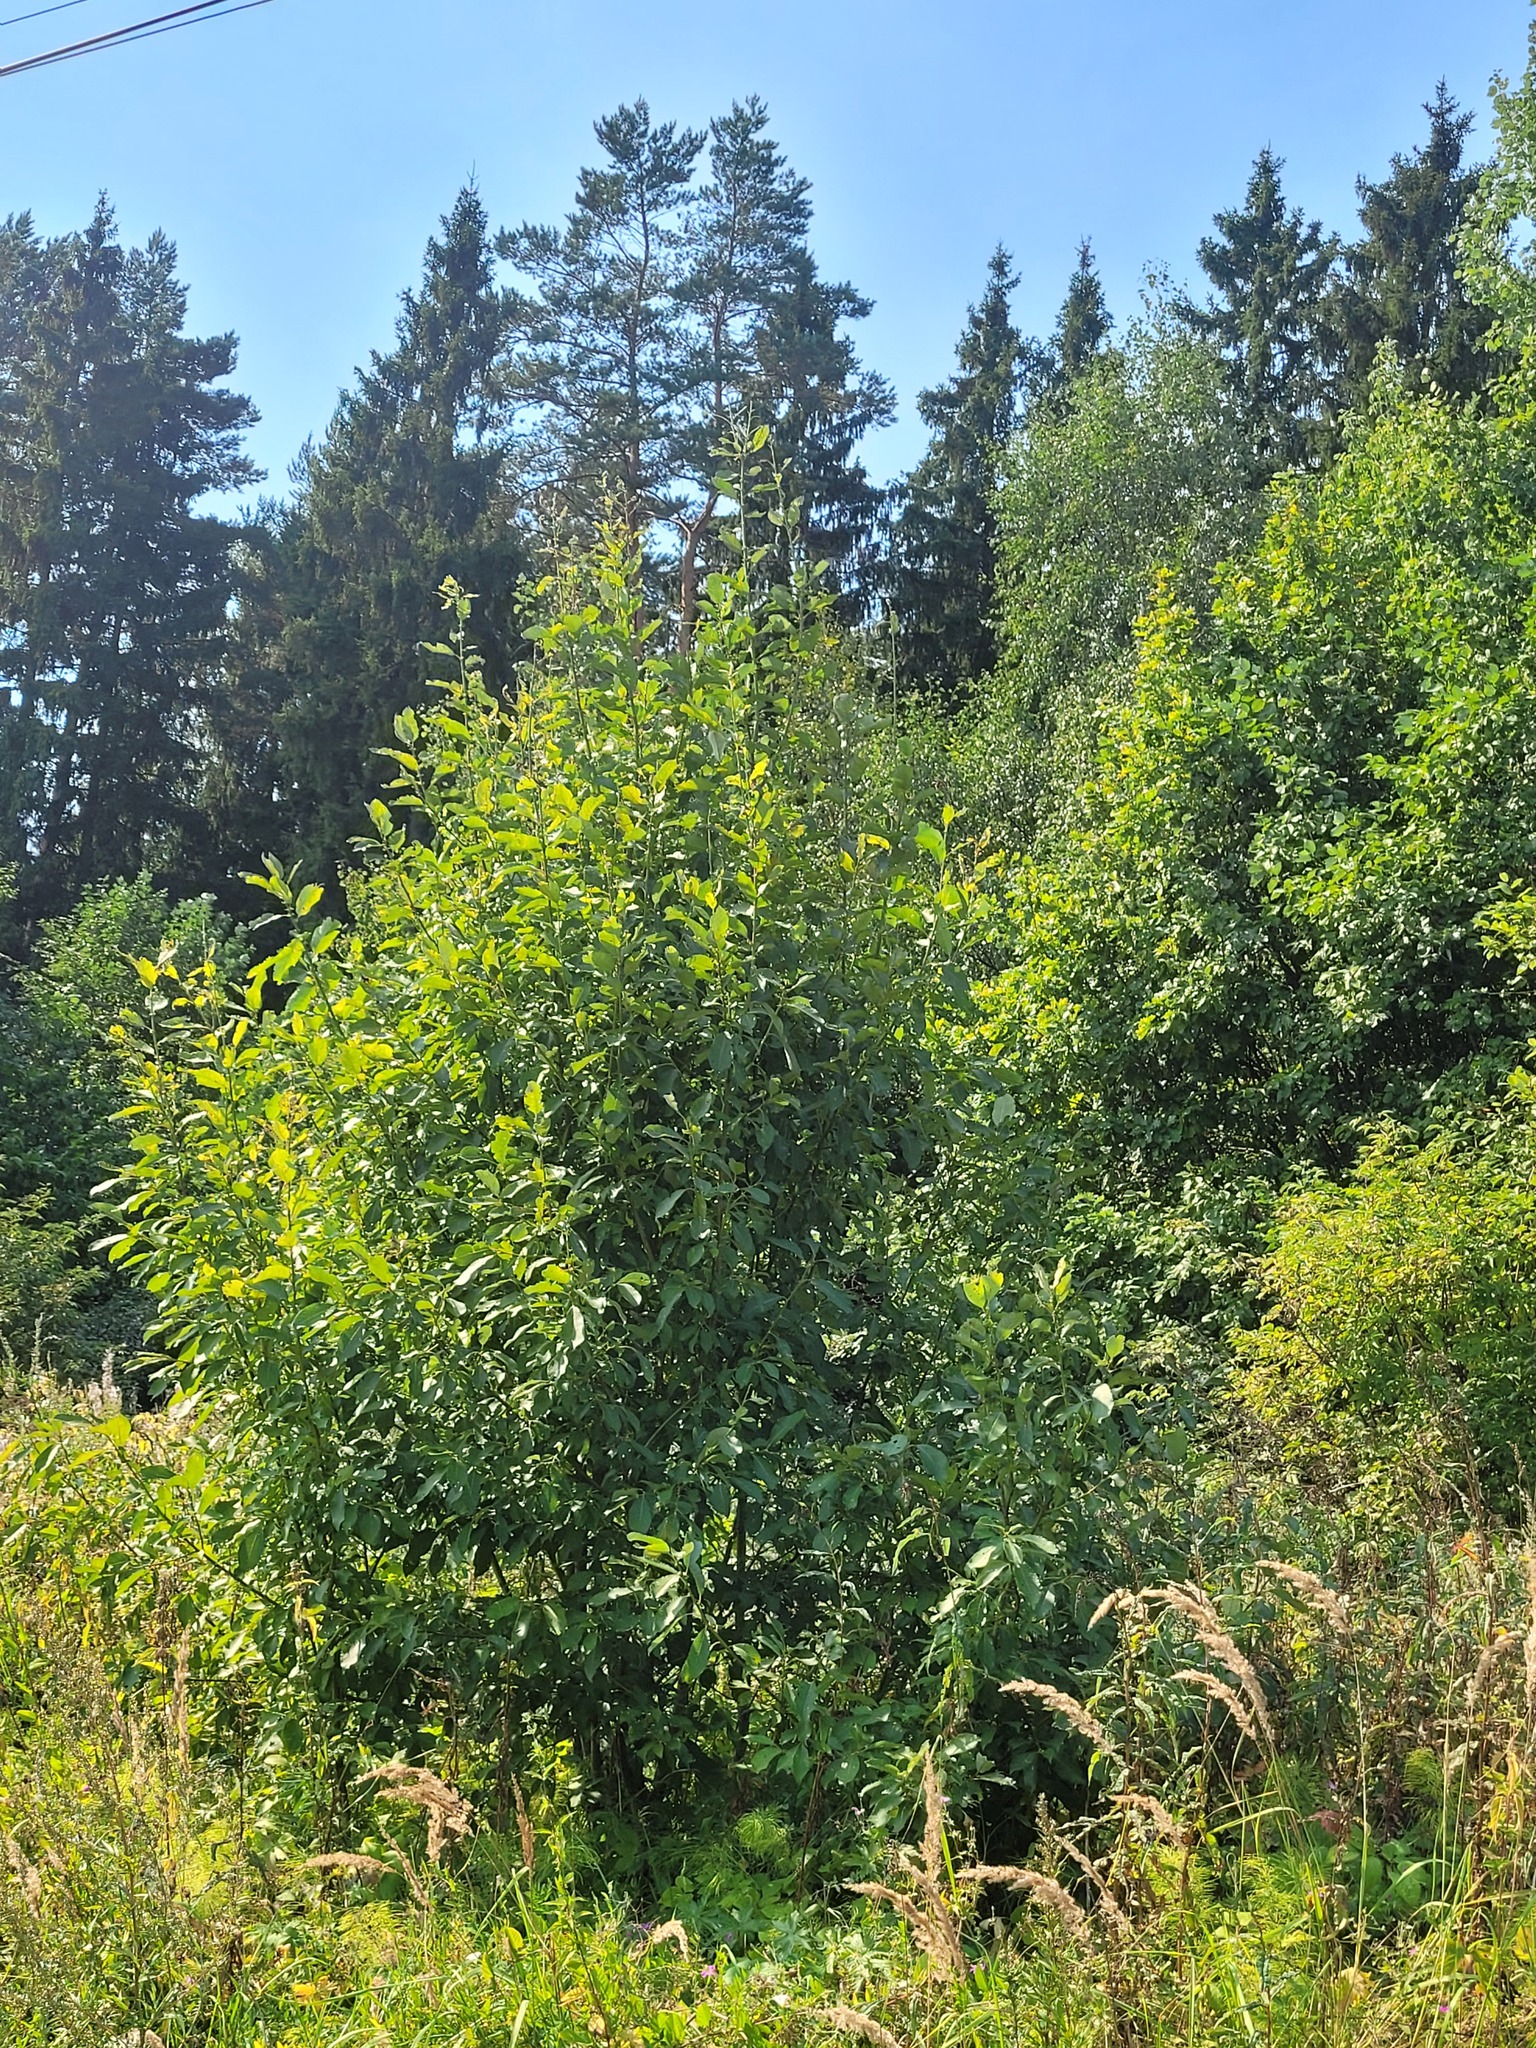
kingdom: Plantae
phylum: Tracheophyta
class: Magnoliopsida
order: Malpighiales
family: Salicaceae
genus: Salix
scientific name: Salix caprea
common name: Goat willow
